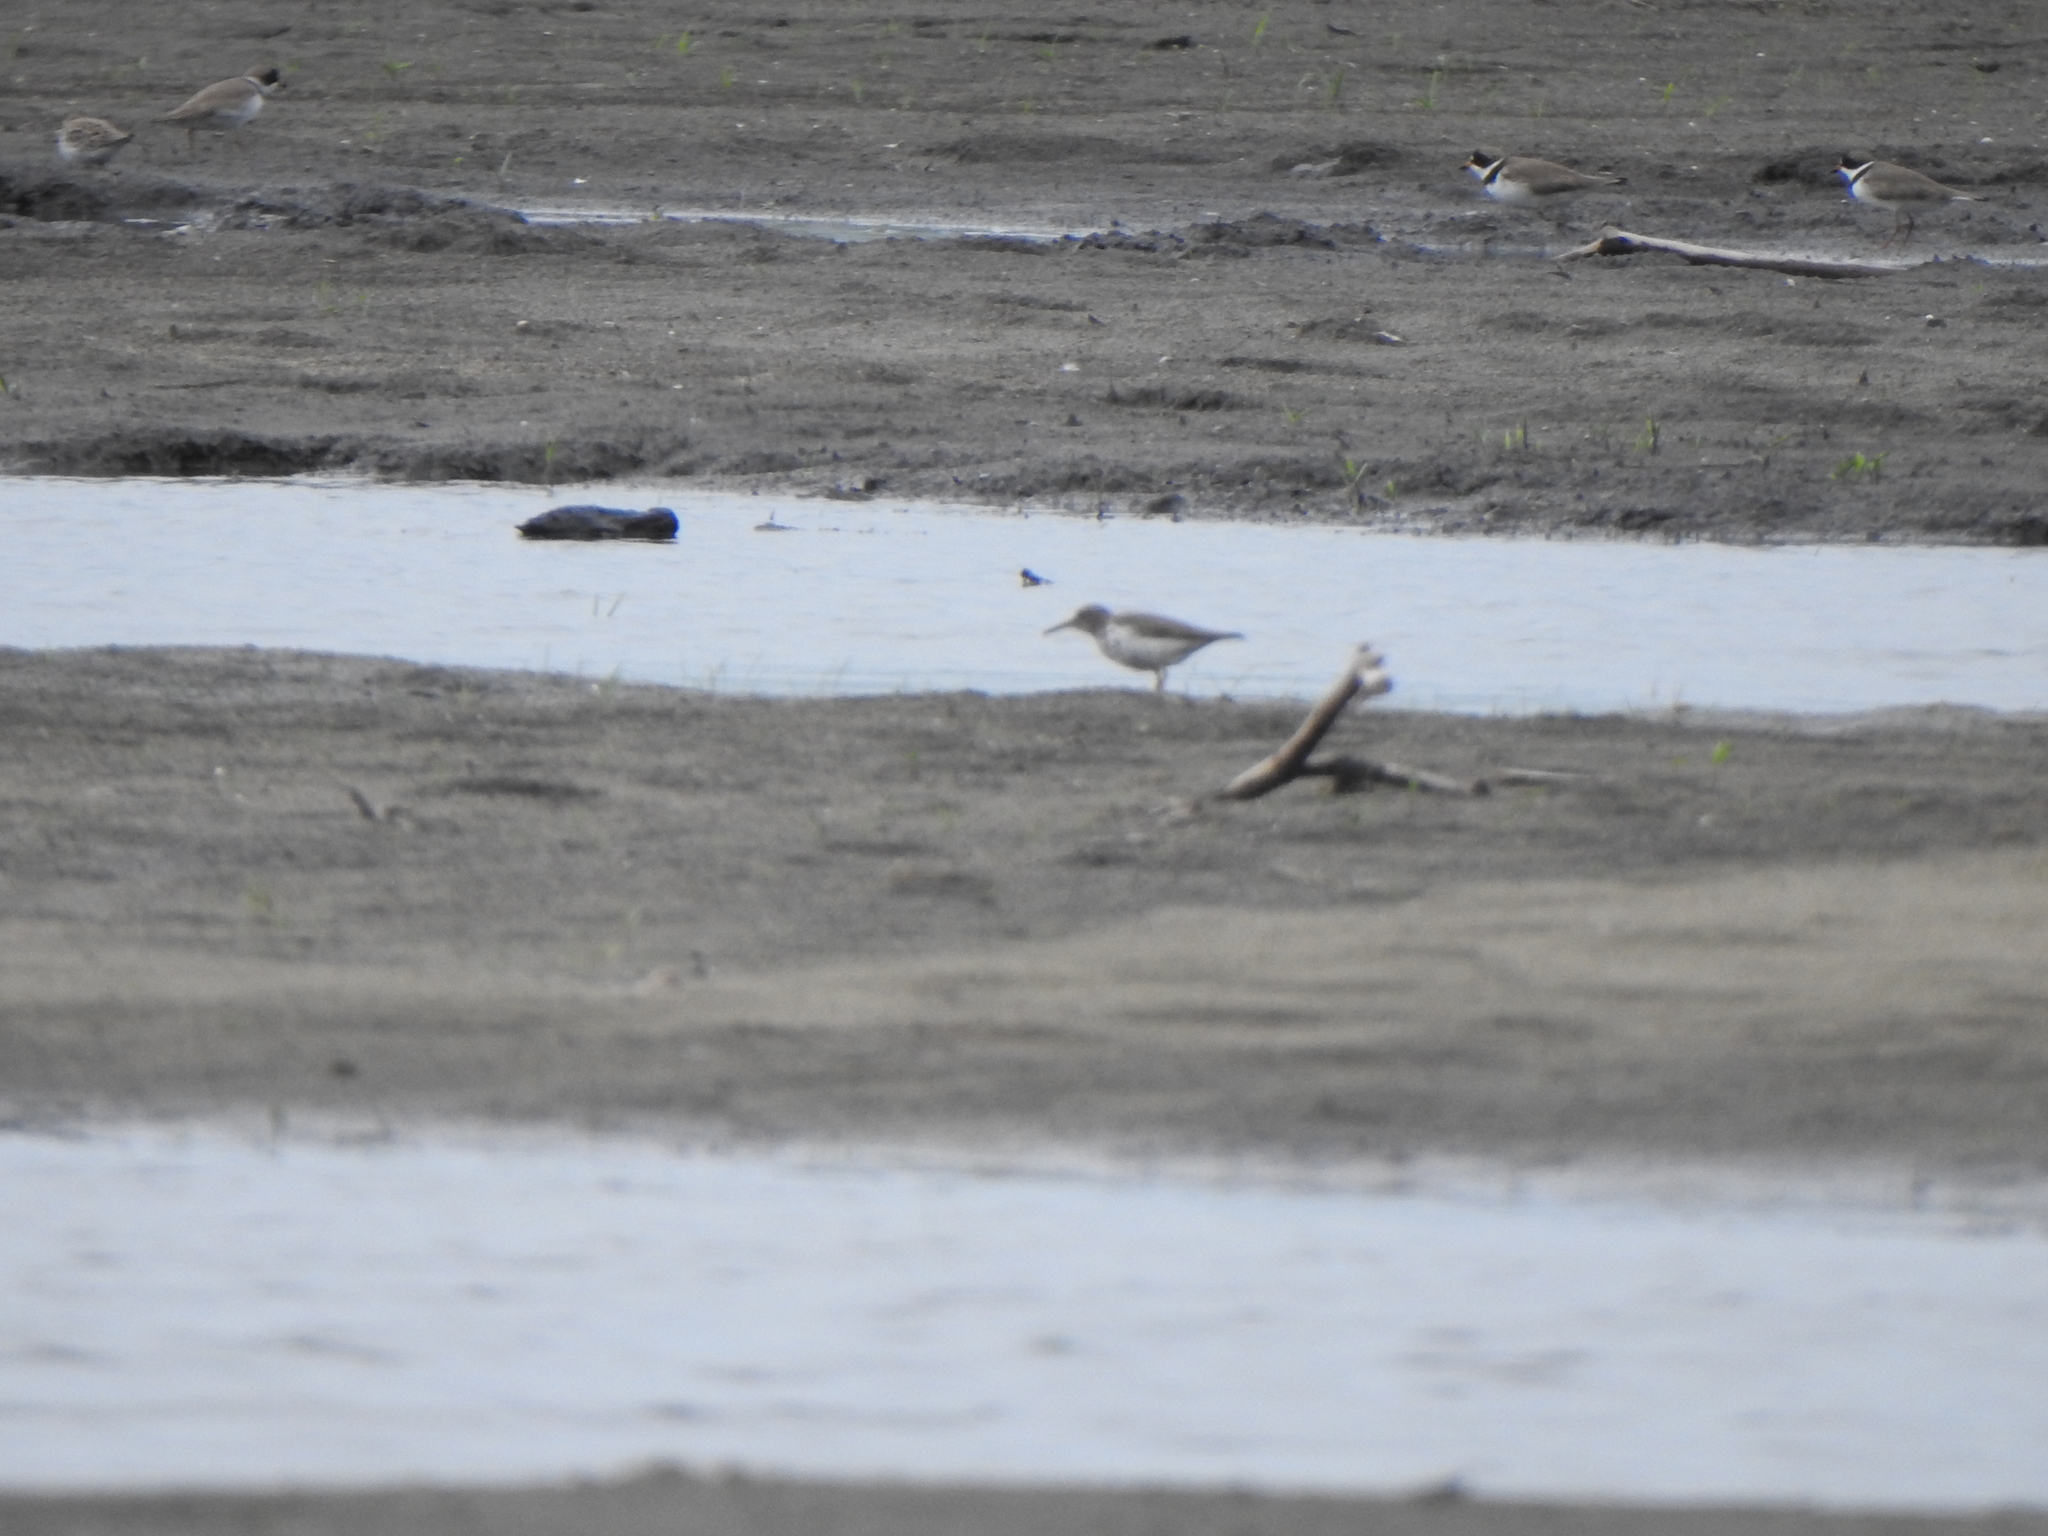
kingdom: Animalia
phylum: Chordata
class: Aves
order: Charadriiformes
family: Scolopacidae
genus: Actitis
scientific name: Actitis macularius
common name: Spotted sandpiper
